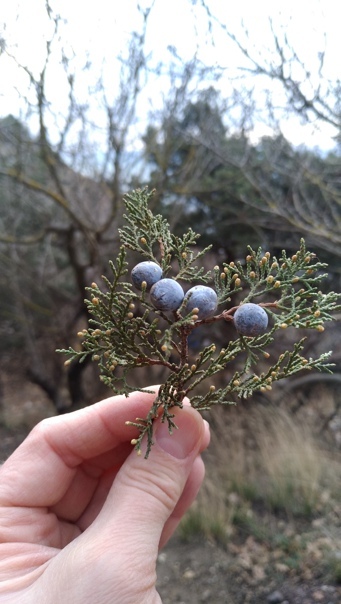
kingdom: Plantae
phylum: Tracheophyta
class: Pinopsida
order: Pinales
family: Cupressaceae
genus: Juniperus
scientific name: Juniperus excelsa
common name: Crimean juniper
